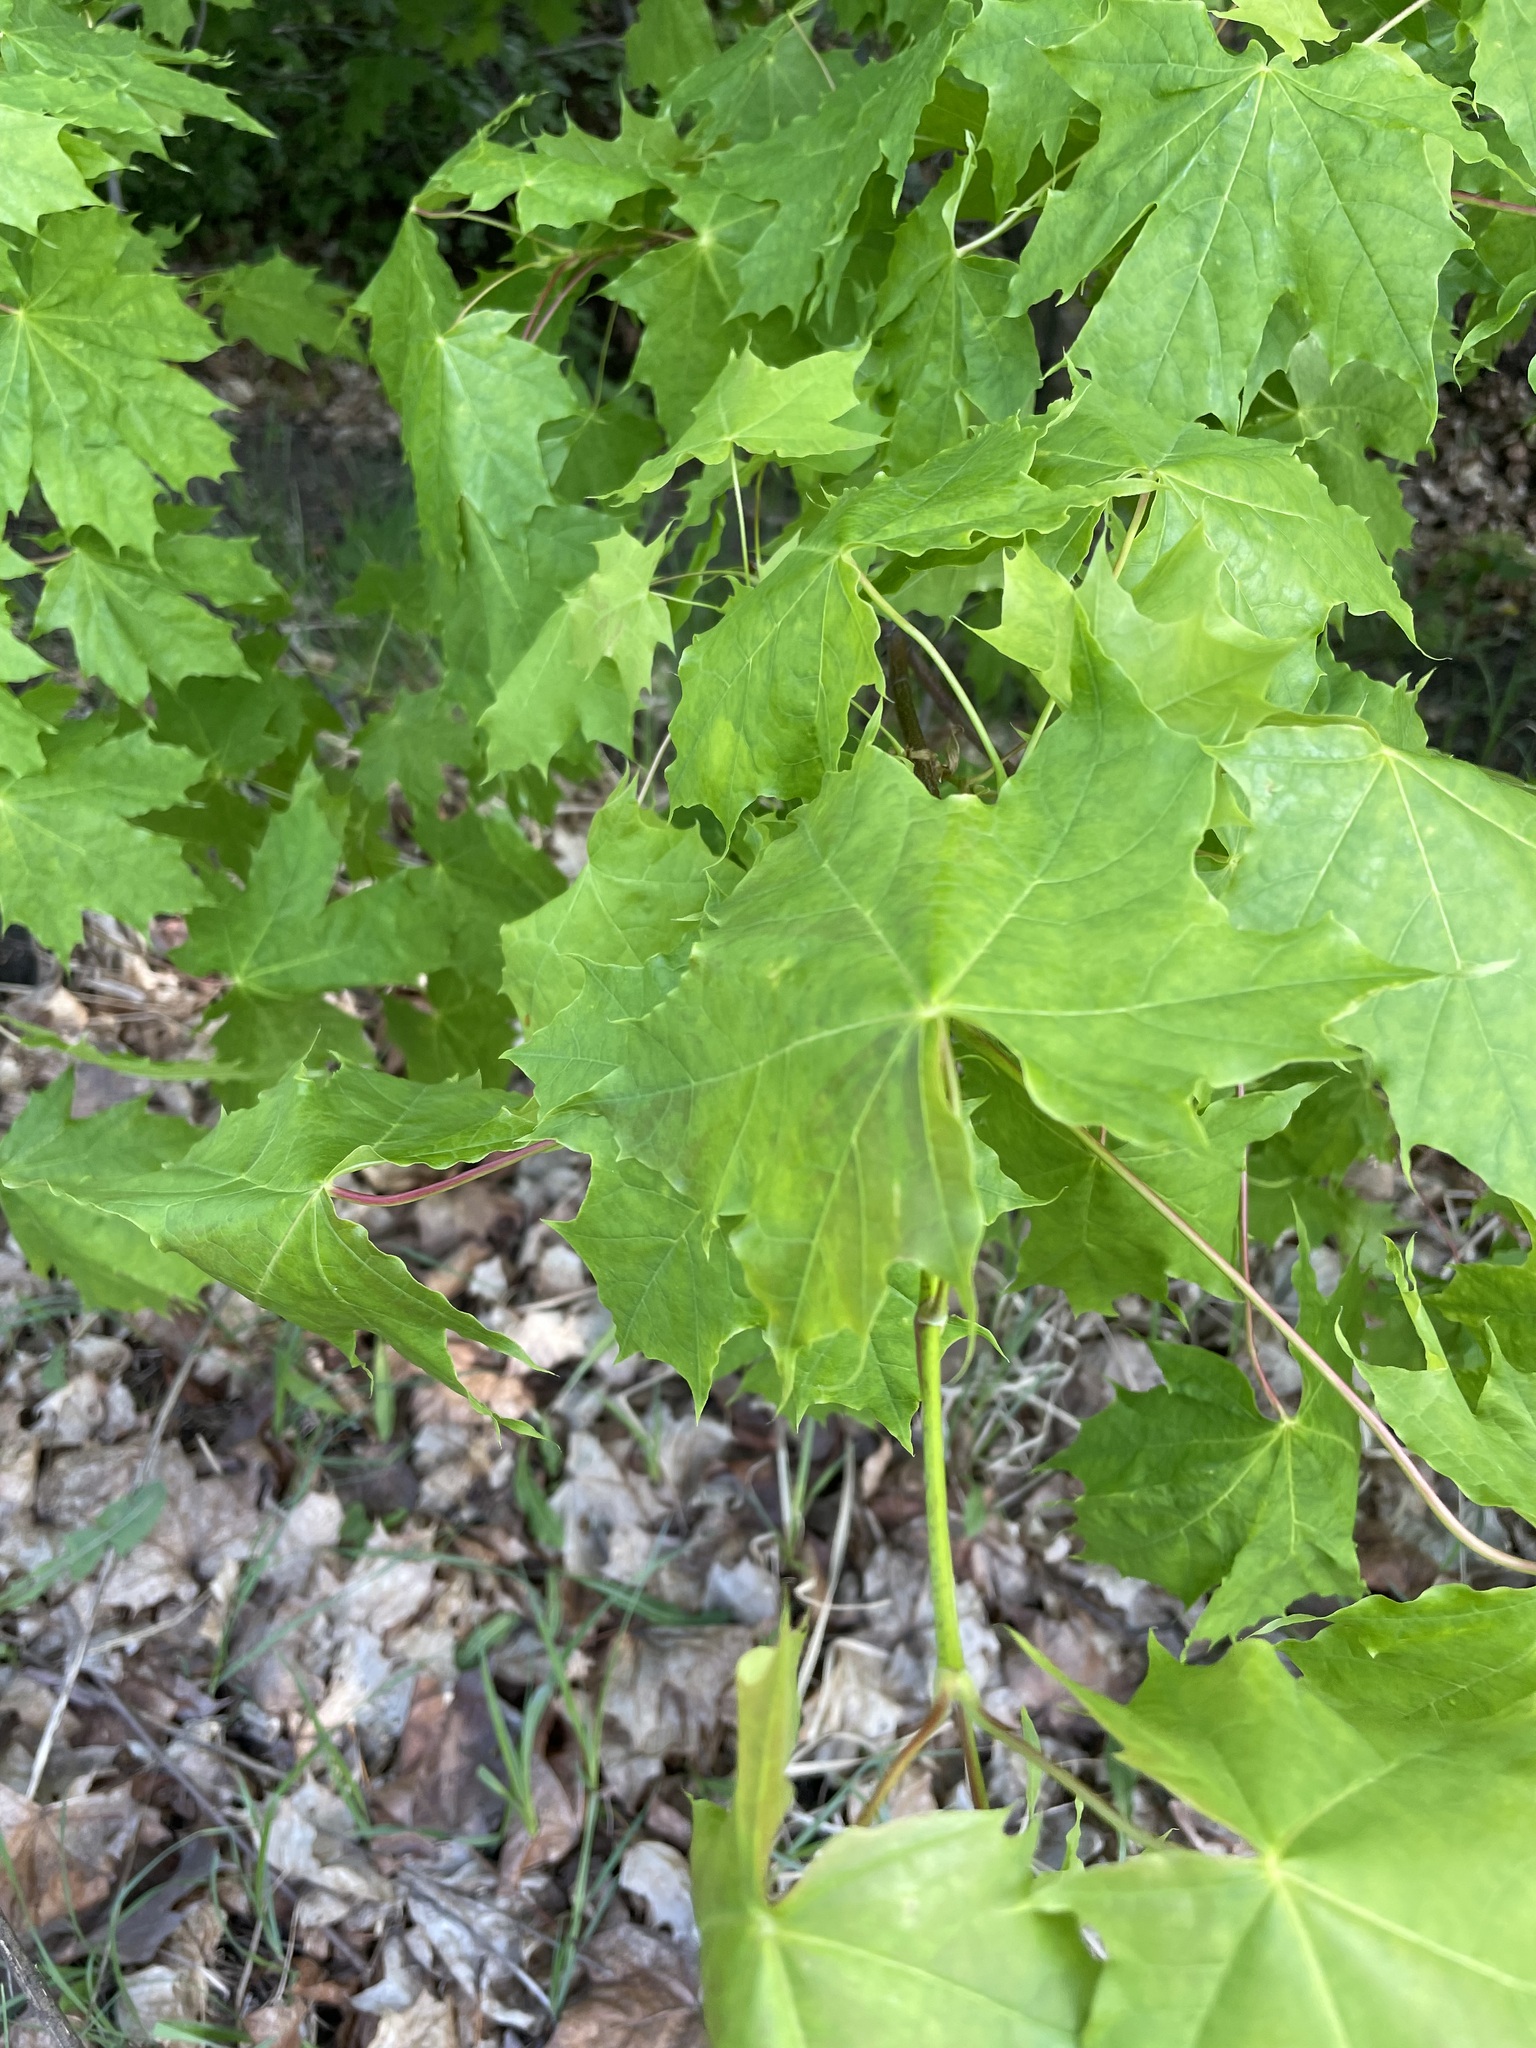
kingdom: Plantae
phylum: Tracheophyta
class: Magnoliopsida
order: Sapindales
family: Sapindaceae
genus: Acer
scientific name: Acer platanoides
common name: Norway maple
